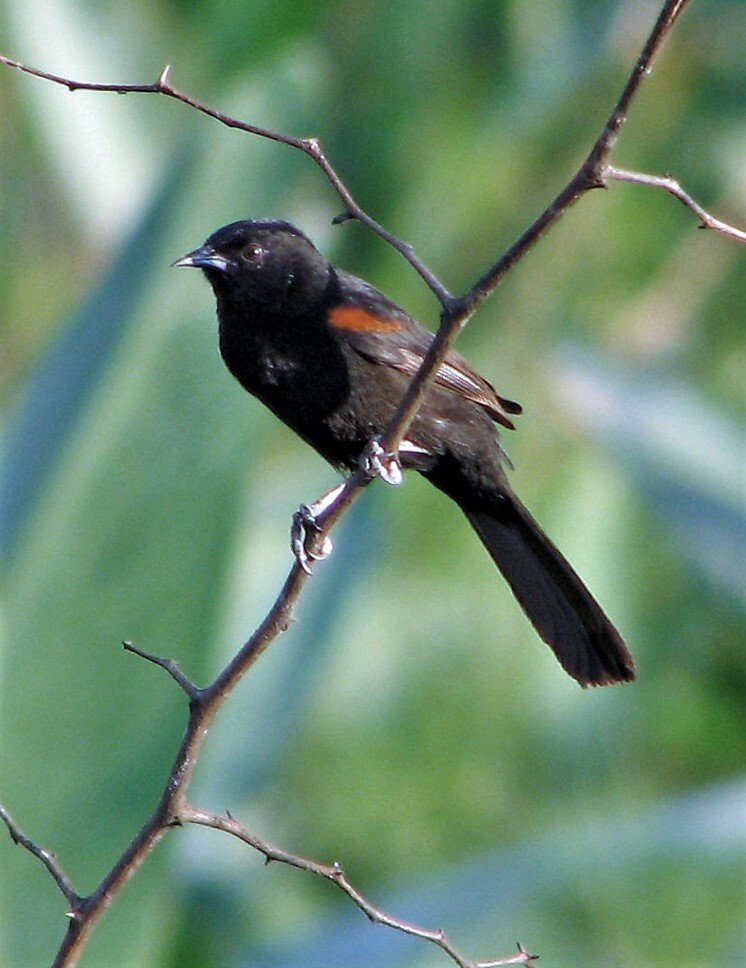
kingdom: Animalia
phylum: Chordata
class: Aves
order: Passeriformes
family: Icteridae
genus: Icterus
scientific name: Icterus cayanensis
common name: Epaulet oriole
